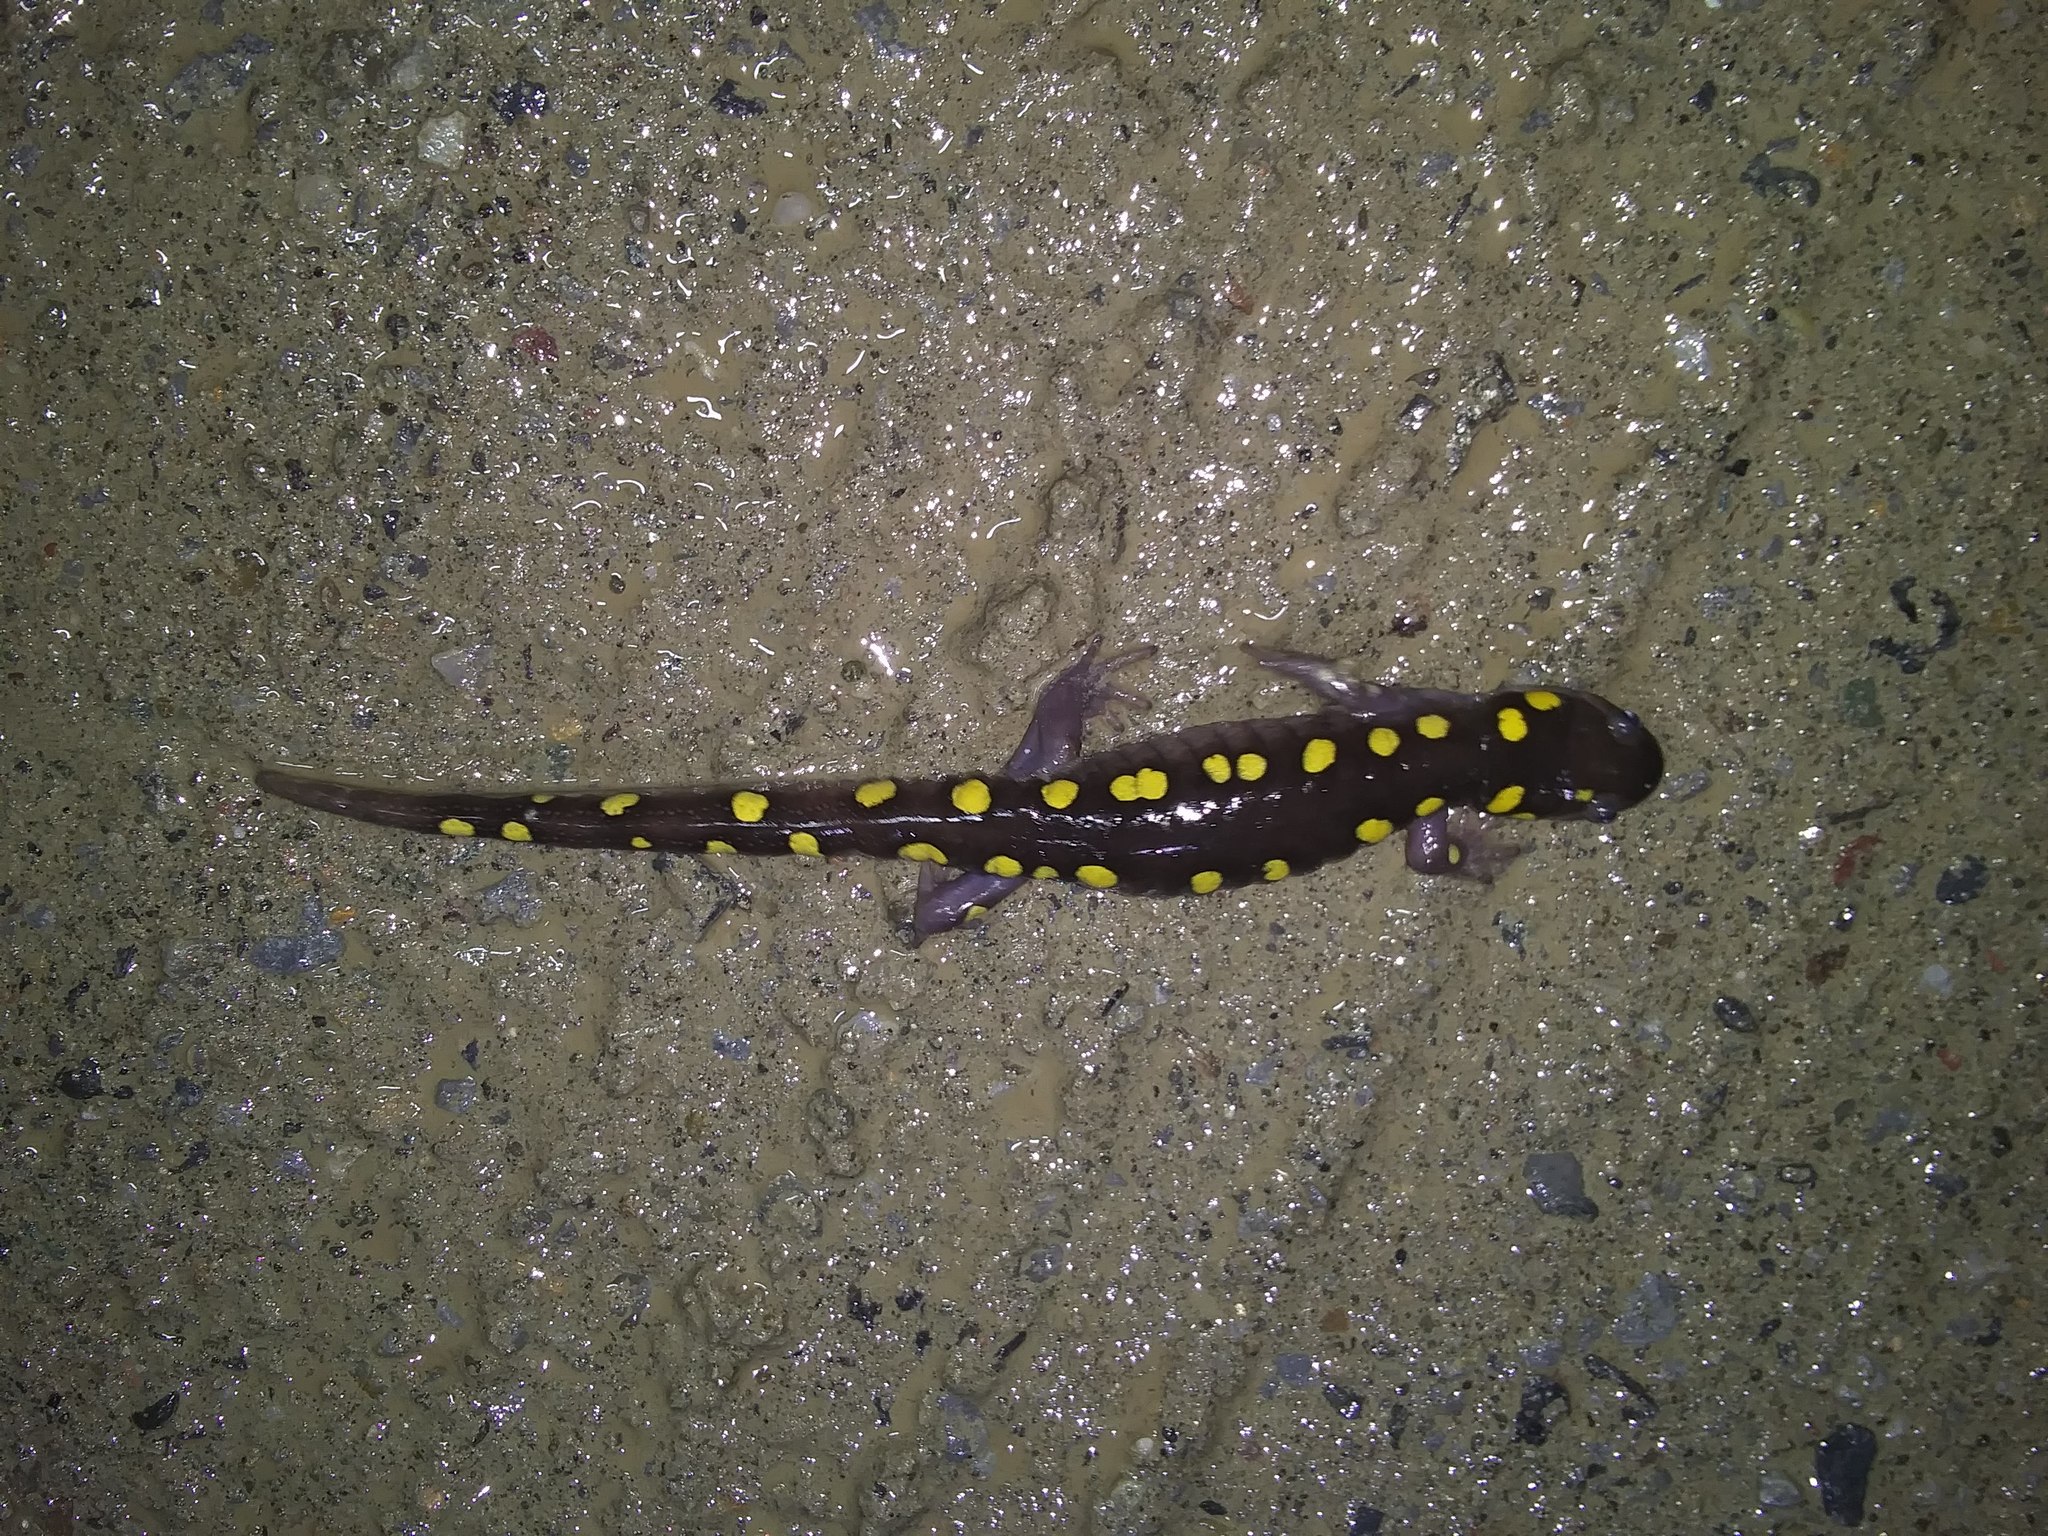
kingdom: Animalia
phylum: Chordata
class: Amphibia
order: Caudata
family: Ambystomatidae
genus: Ambystoma
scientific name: Ambystoma maculatum
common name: Spotted salamander
